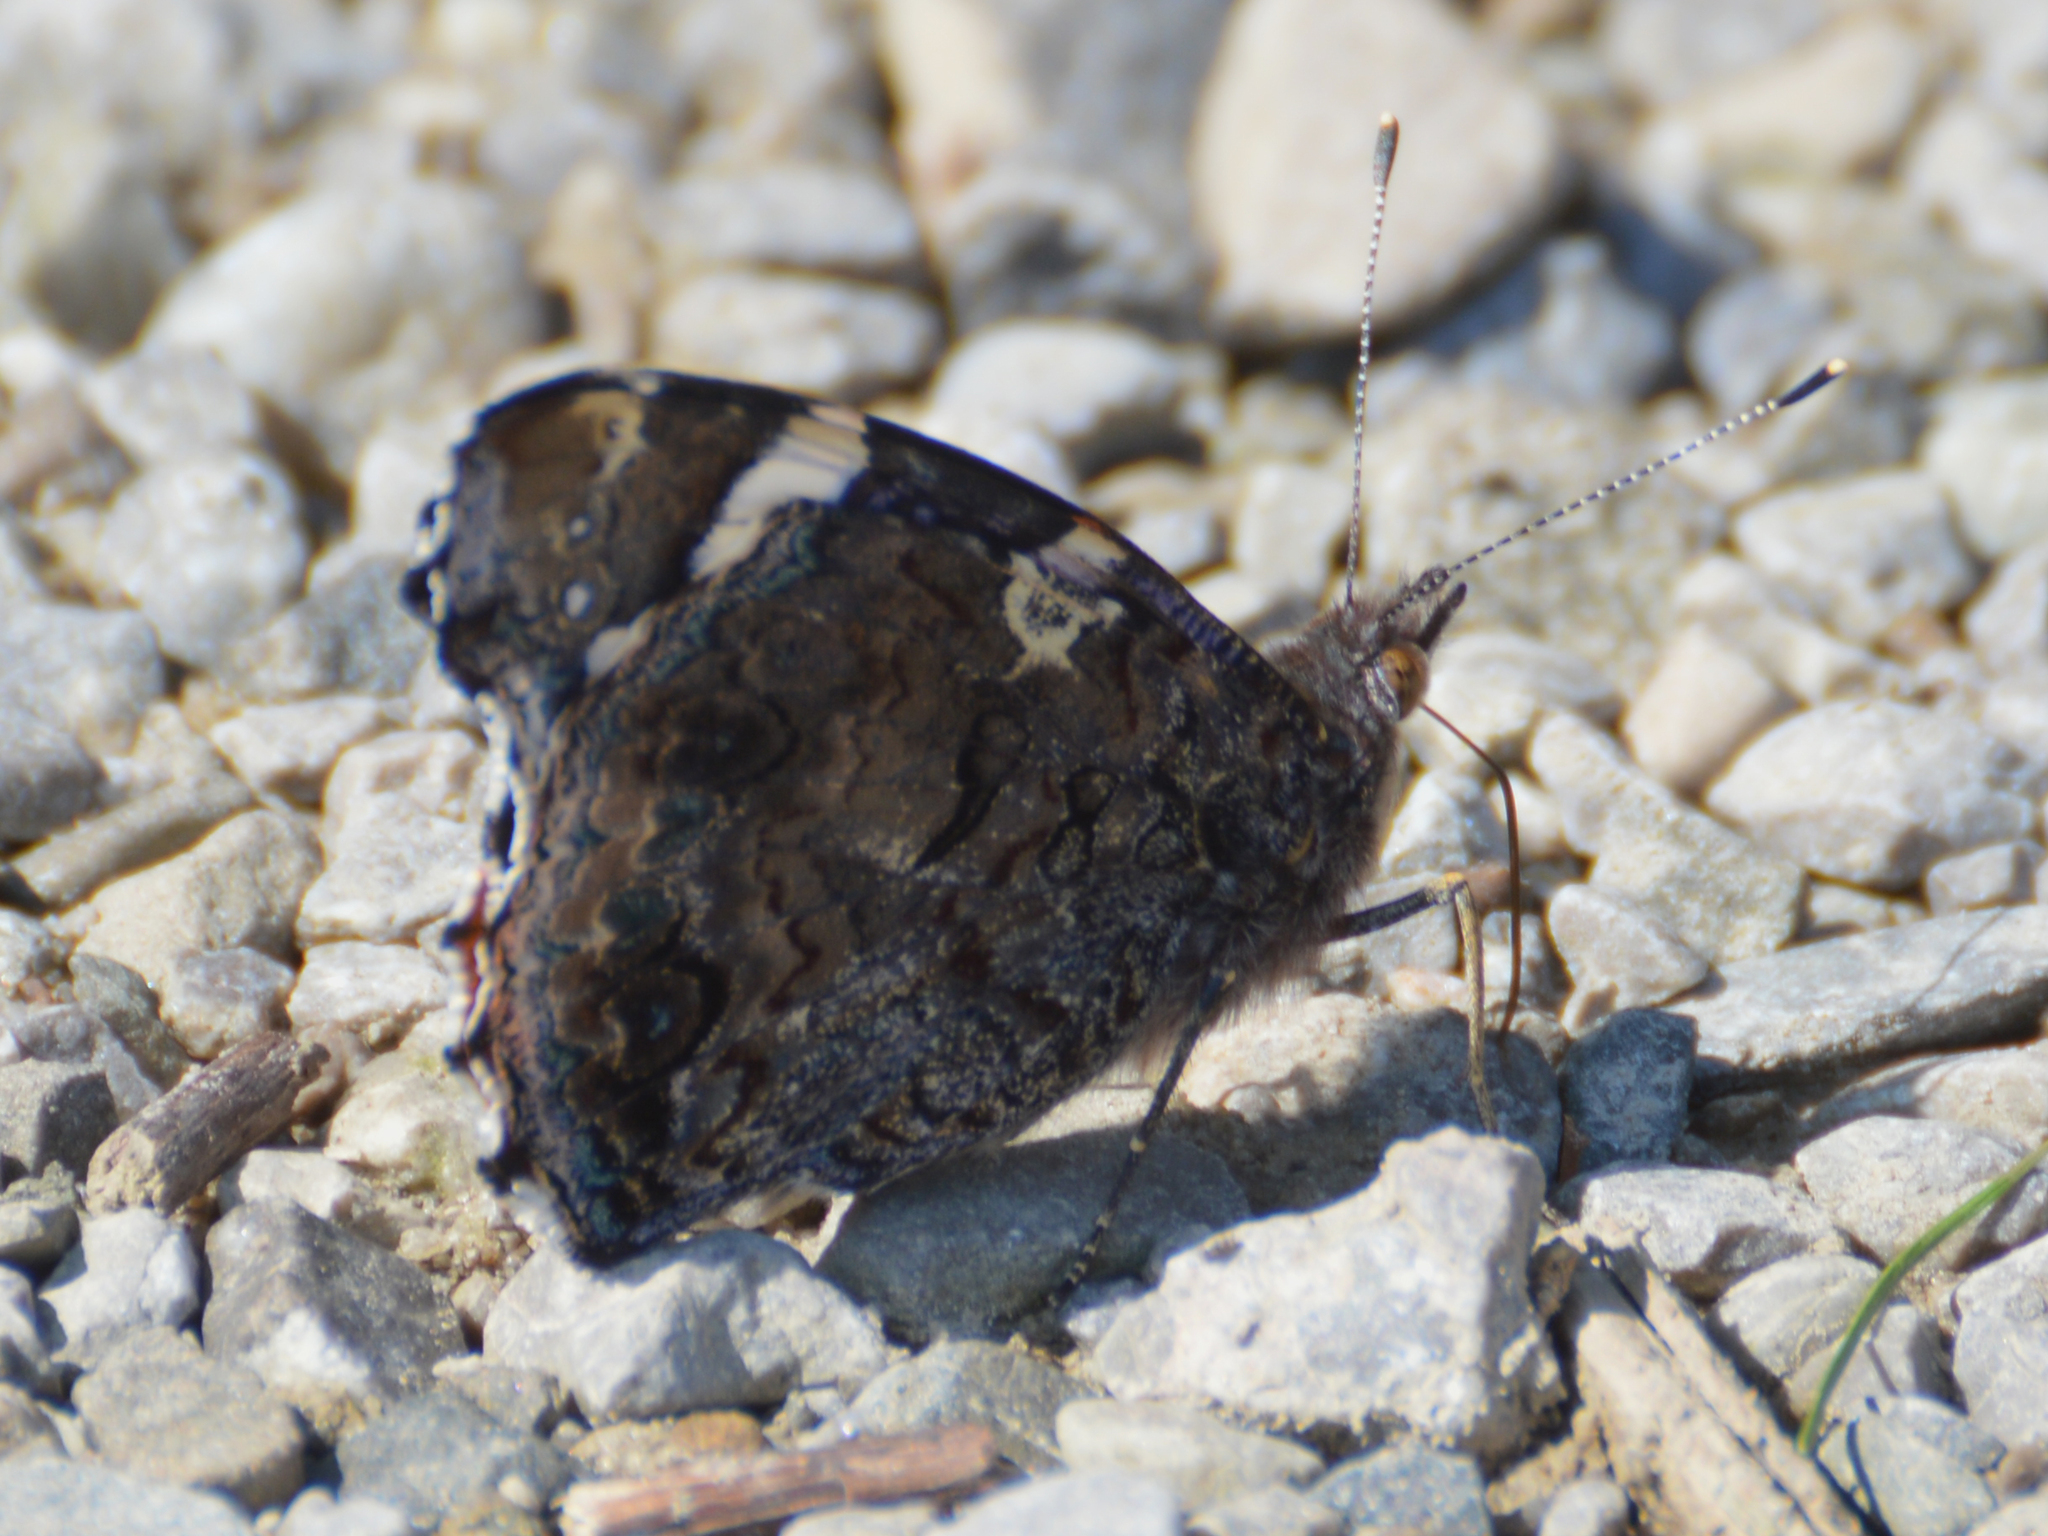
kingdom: Animalia
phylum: Arthropoda
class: Insecta
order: Lepidoptera
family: Nymphalidae
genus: Vanessa
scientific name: Vanessa atalanta
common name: Red admiral
